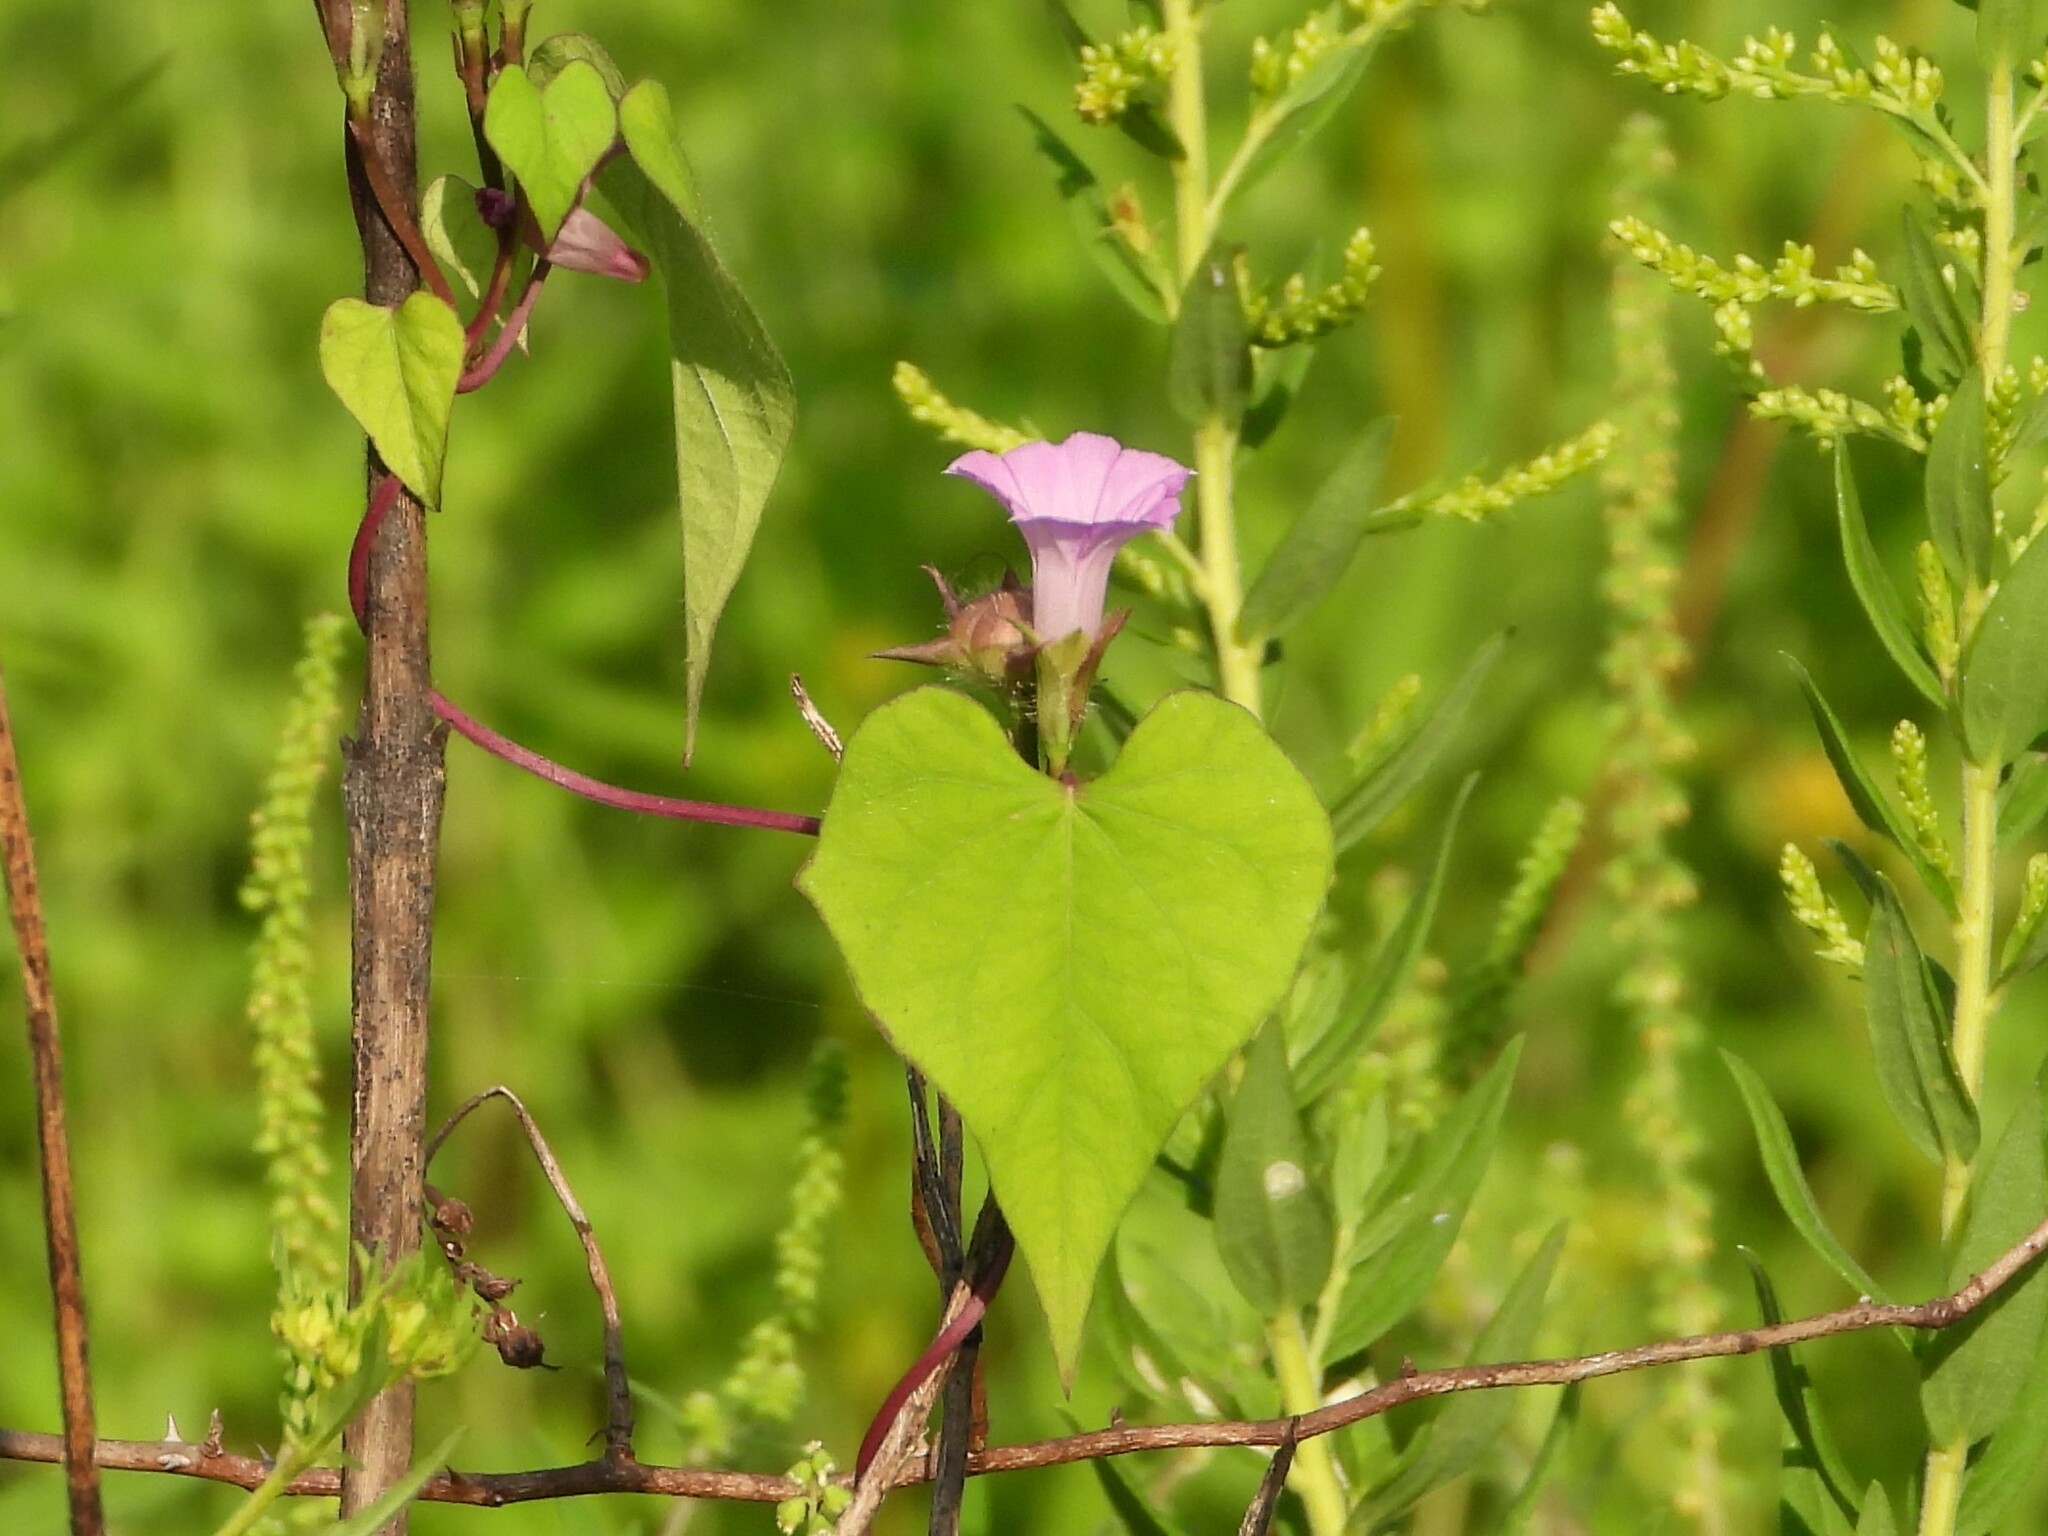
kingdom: Plantae
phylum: Tracheophyta
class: Magnoliopsida
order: Solanales
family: Convolvulaceae
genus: Ipomoea
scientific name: Ipomoea triloba
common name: Little-bell
